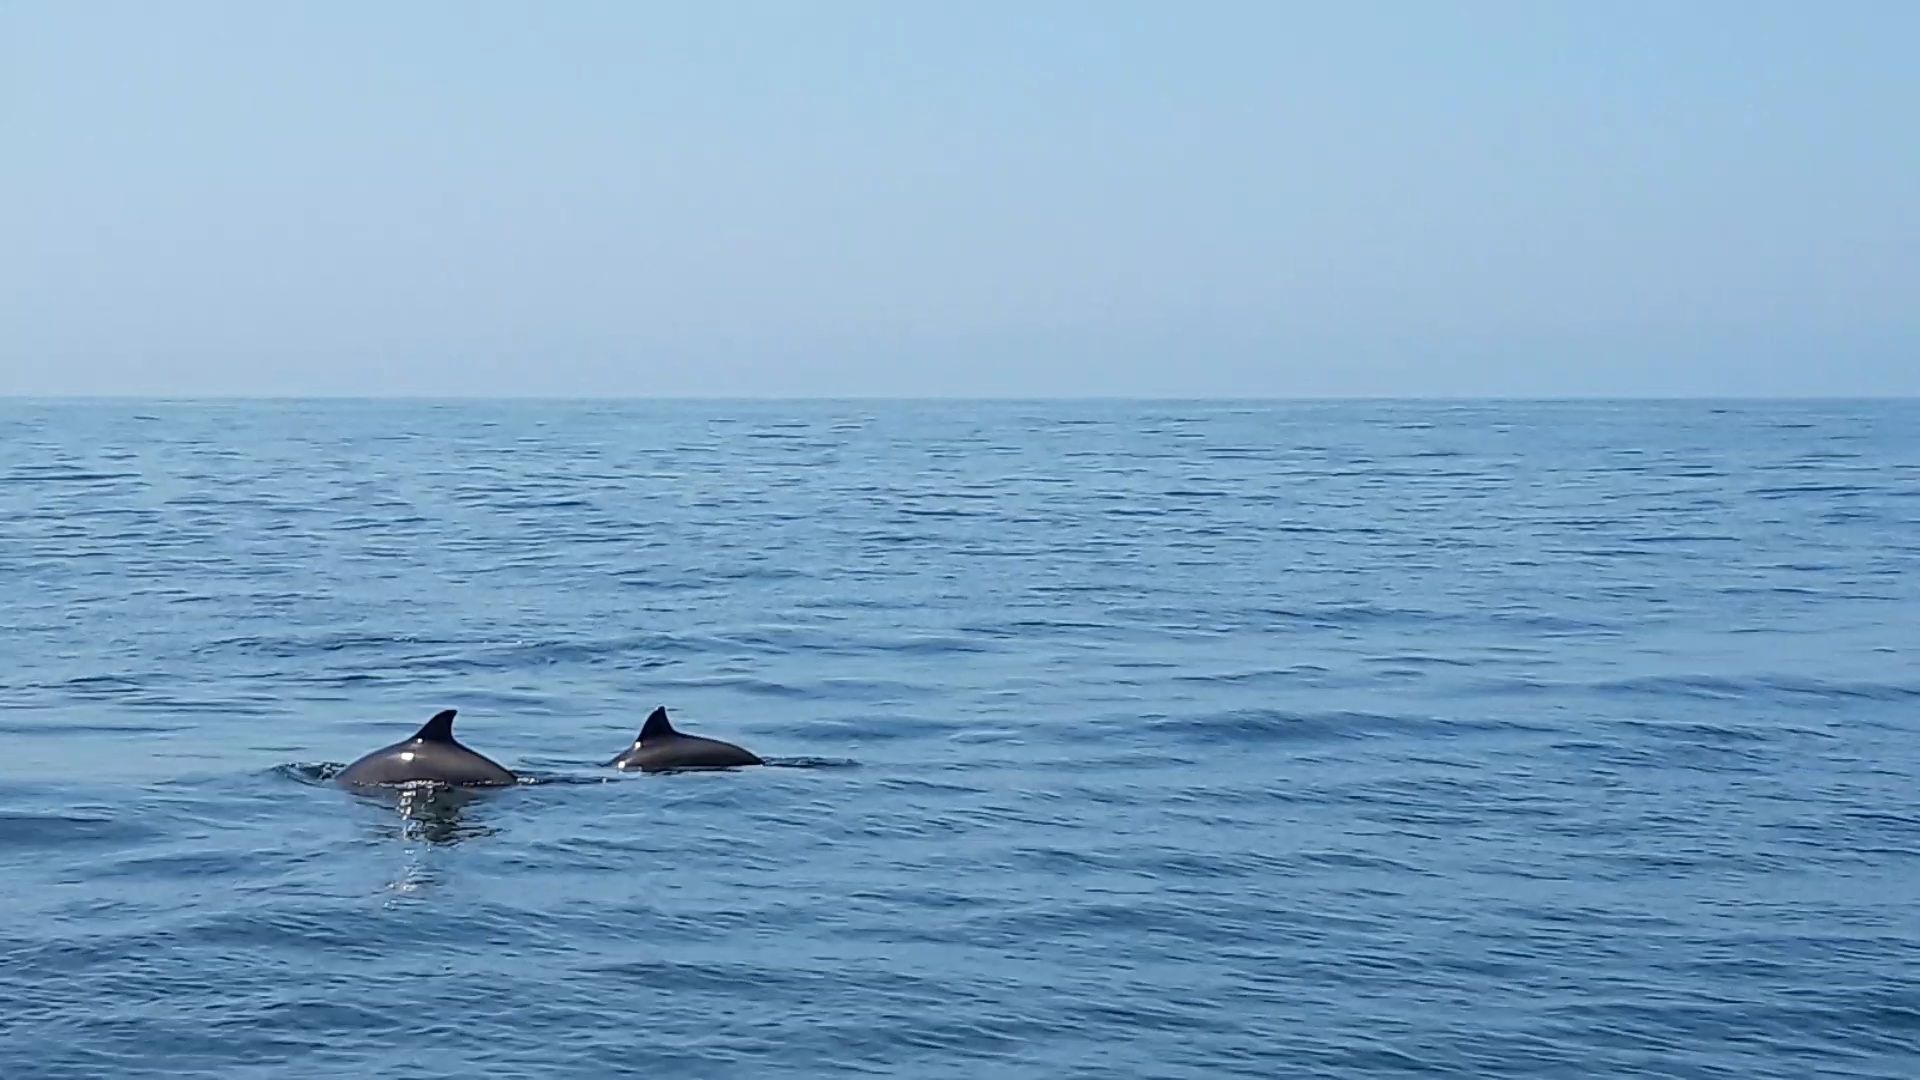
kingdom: Animalia
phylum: Chordata
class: Mammalia
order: Cetacea
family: Phocoenidae
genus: Phocoena
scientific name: Phocoena phocoena
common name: Harbor porpoise
